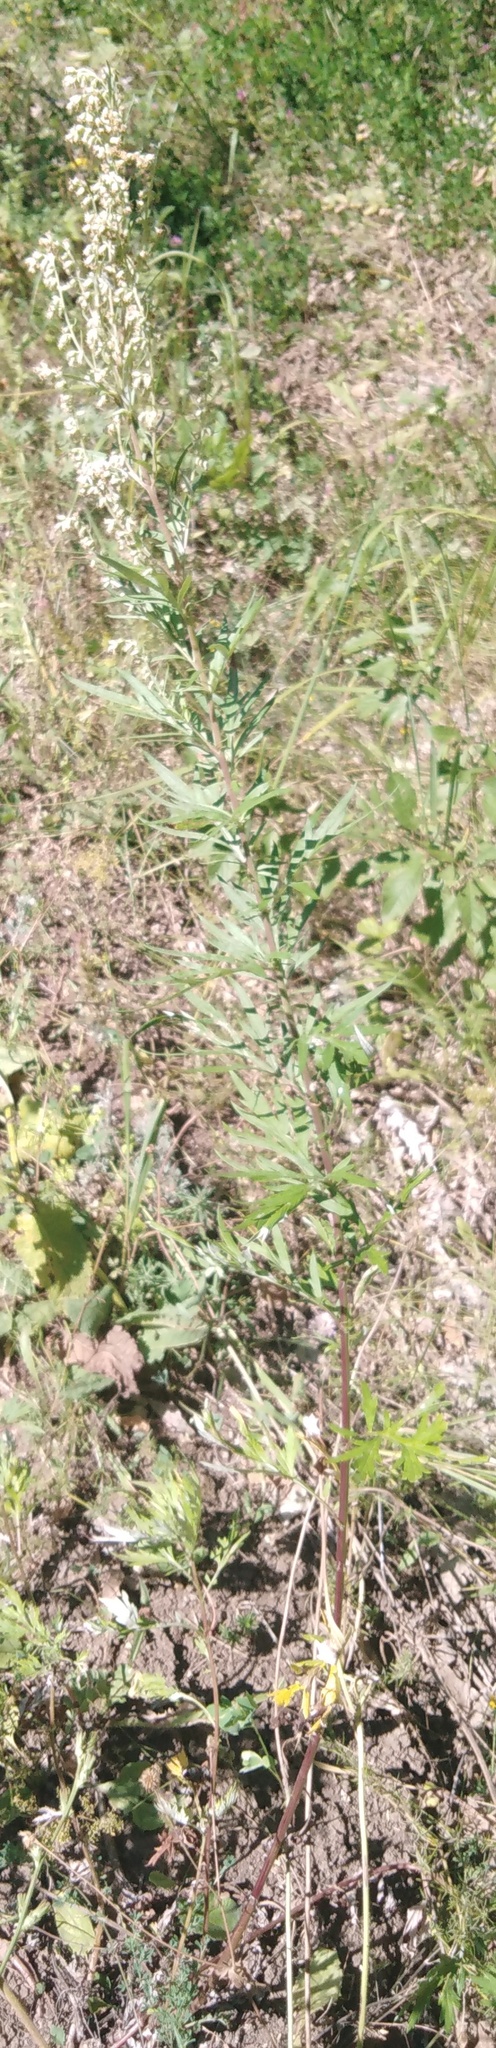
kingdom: Plantae
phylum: Tracheophyta
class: Magnoliopsida
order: Asterales
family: Asteraceae
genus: Artemisia
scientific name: Artemisia vulgaris
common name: Mugwort
